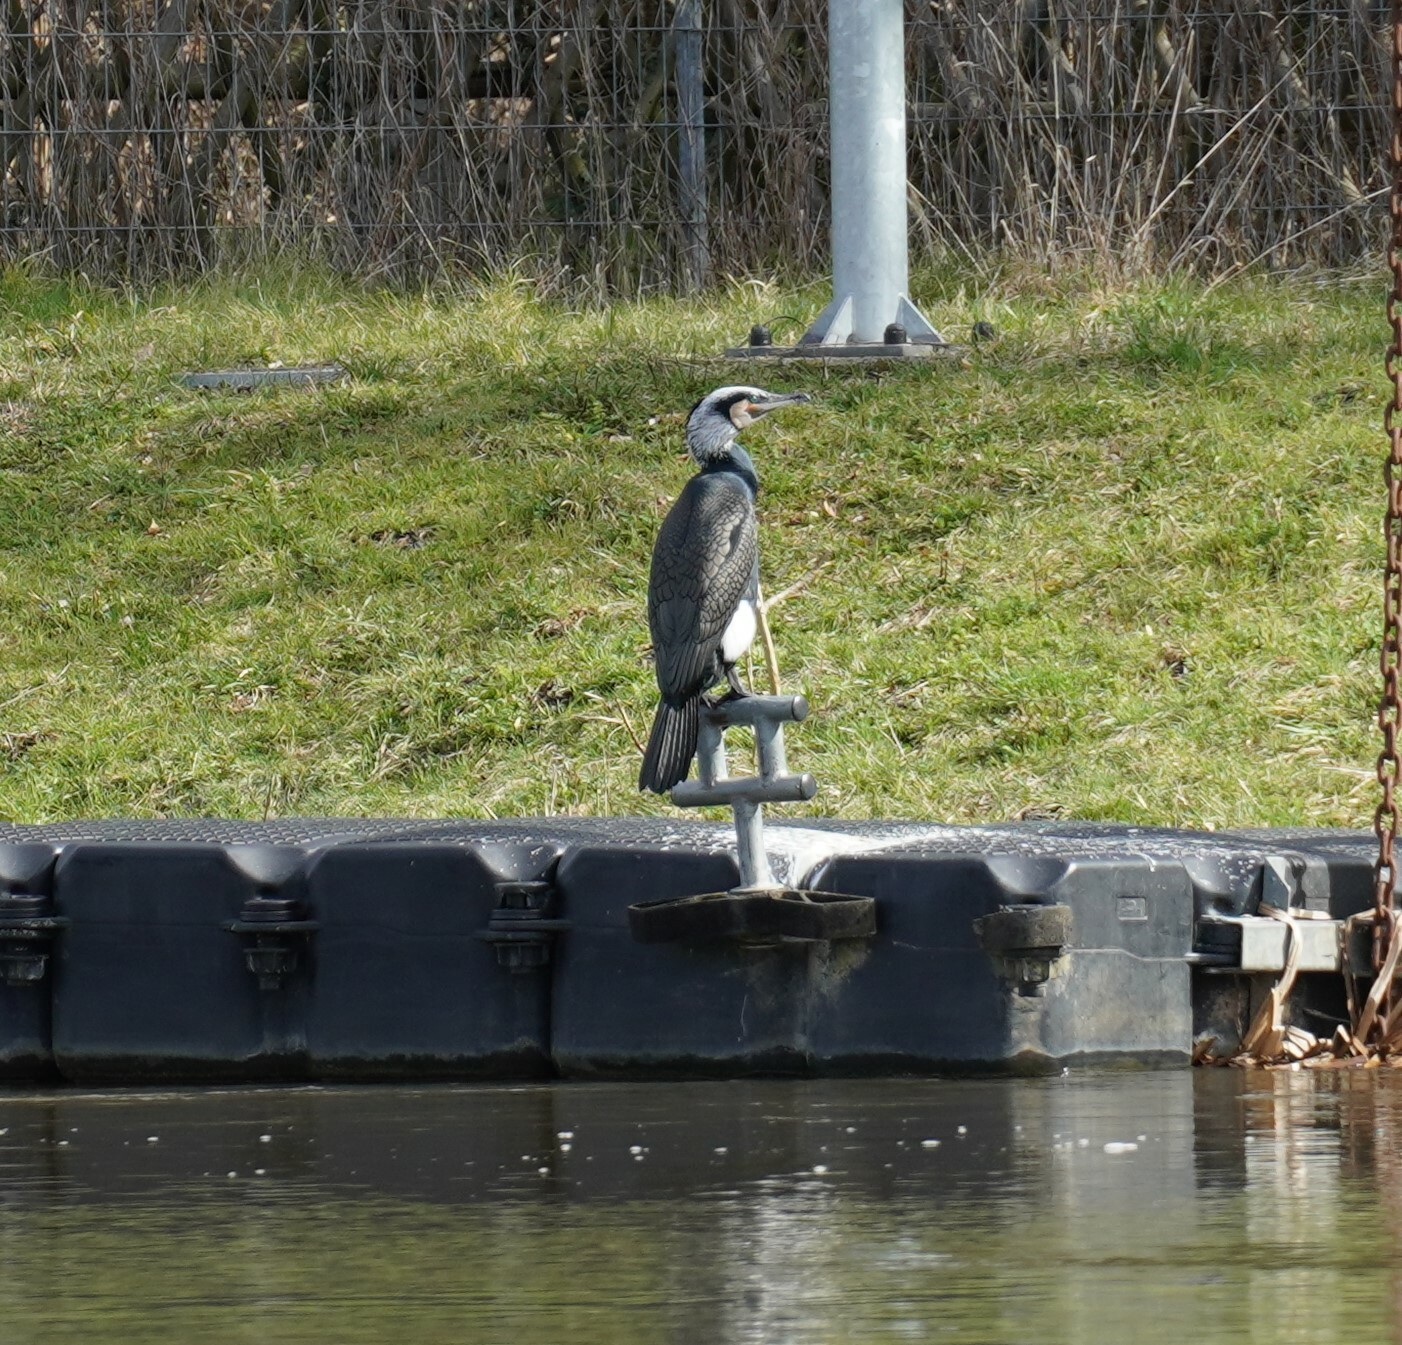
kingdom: Animalia
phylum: Chordata
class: Aves
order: Suliformes
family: Phalacrocoracidae
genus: Phalacrocorax
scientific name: Phalacrocorax carbo
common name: Great cormorant
